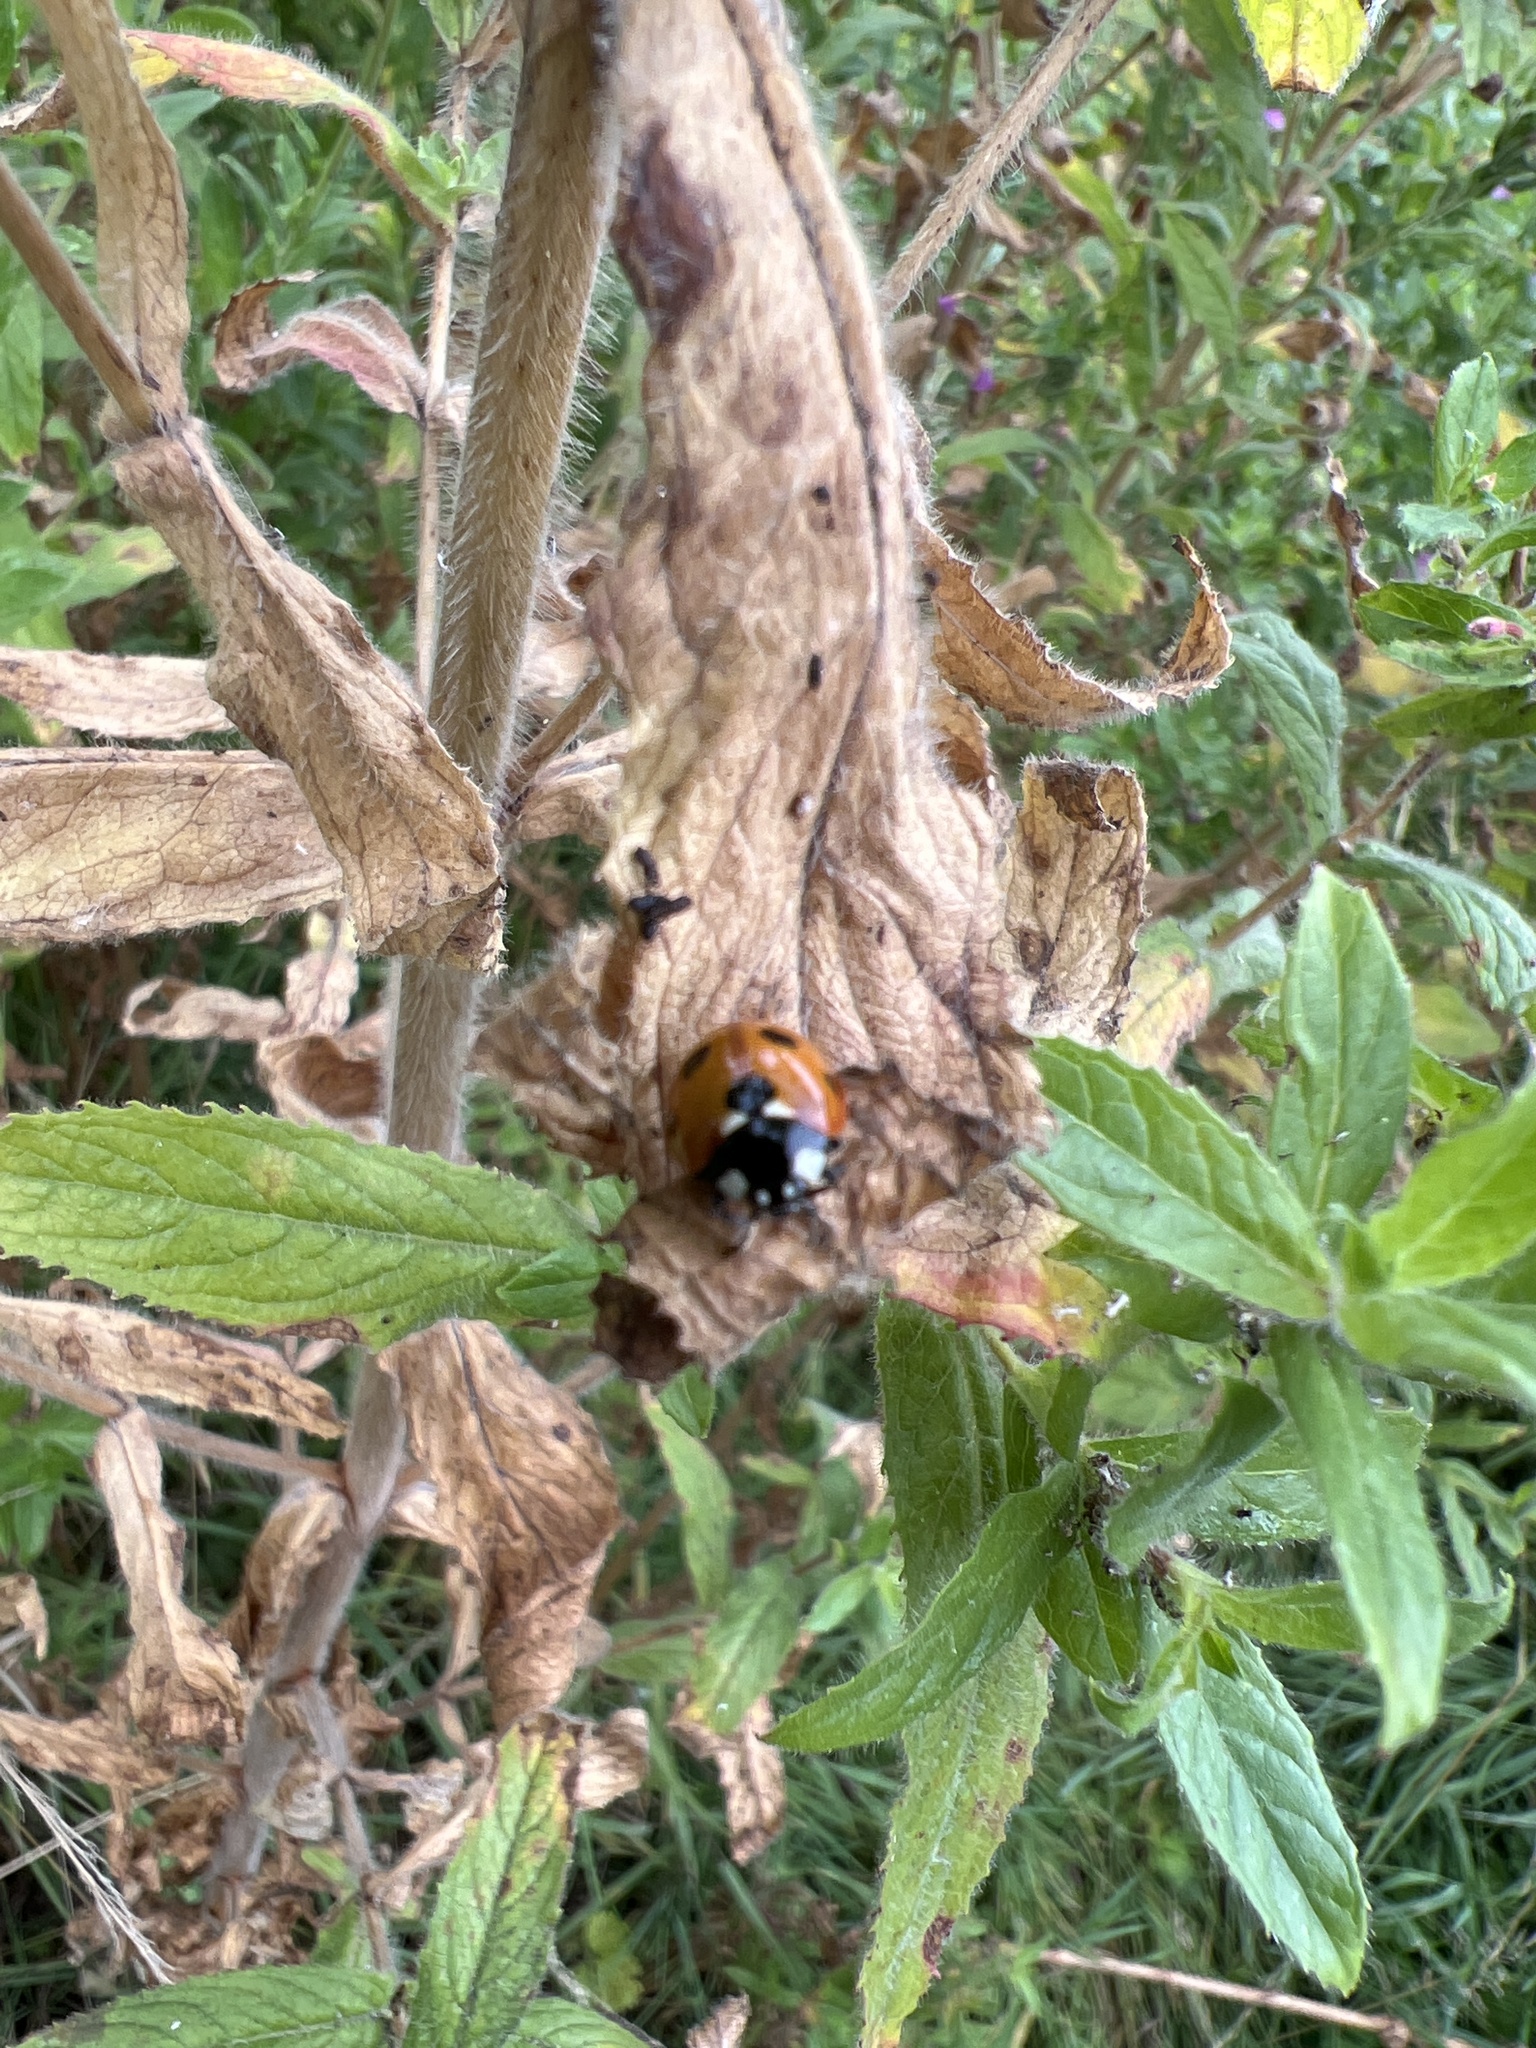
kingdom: Animalia
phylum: Arthropoda
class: Insecta
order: Coleoptera
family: Coccinellidae
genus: Coccinella
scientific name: Coccinella septempunctata
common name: Sevenspotted lady beetle
